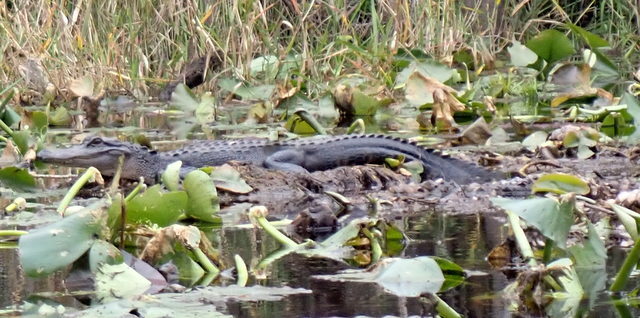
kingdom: Animalia
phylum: Chordata
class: Crocodylia
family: Alligatoridae
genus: Alligator
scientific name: Alligator mississippiensis
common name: American alligator
